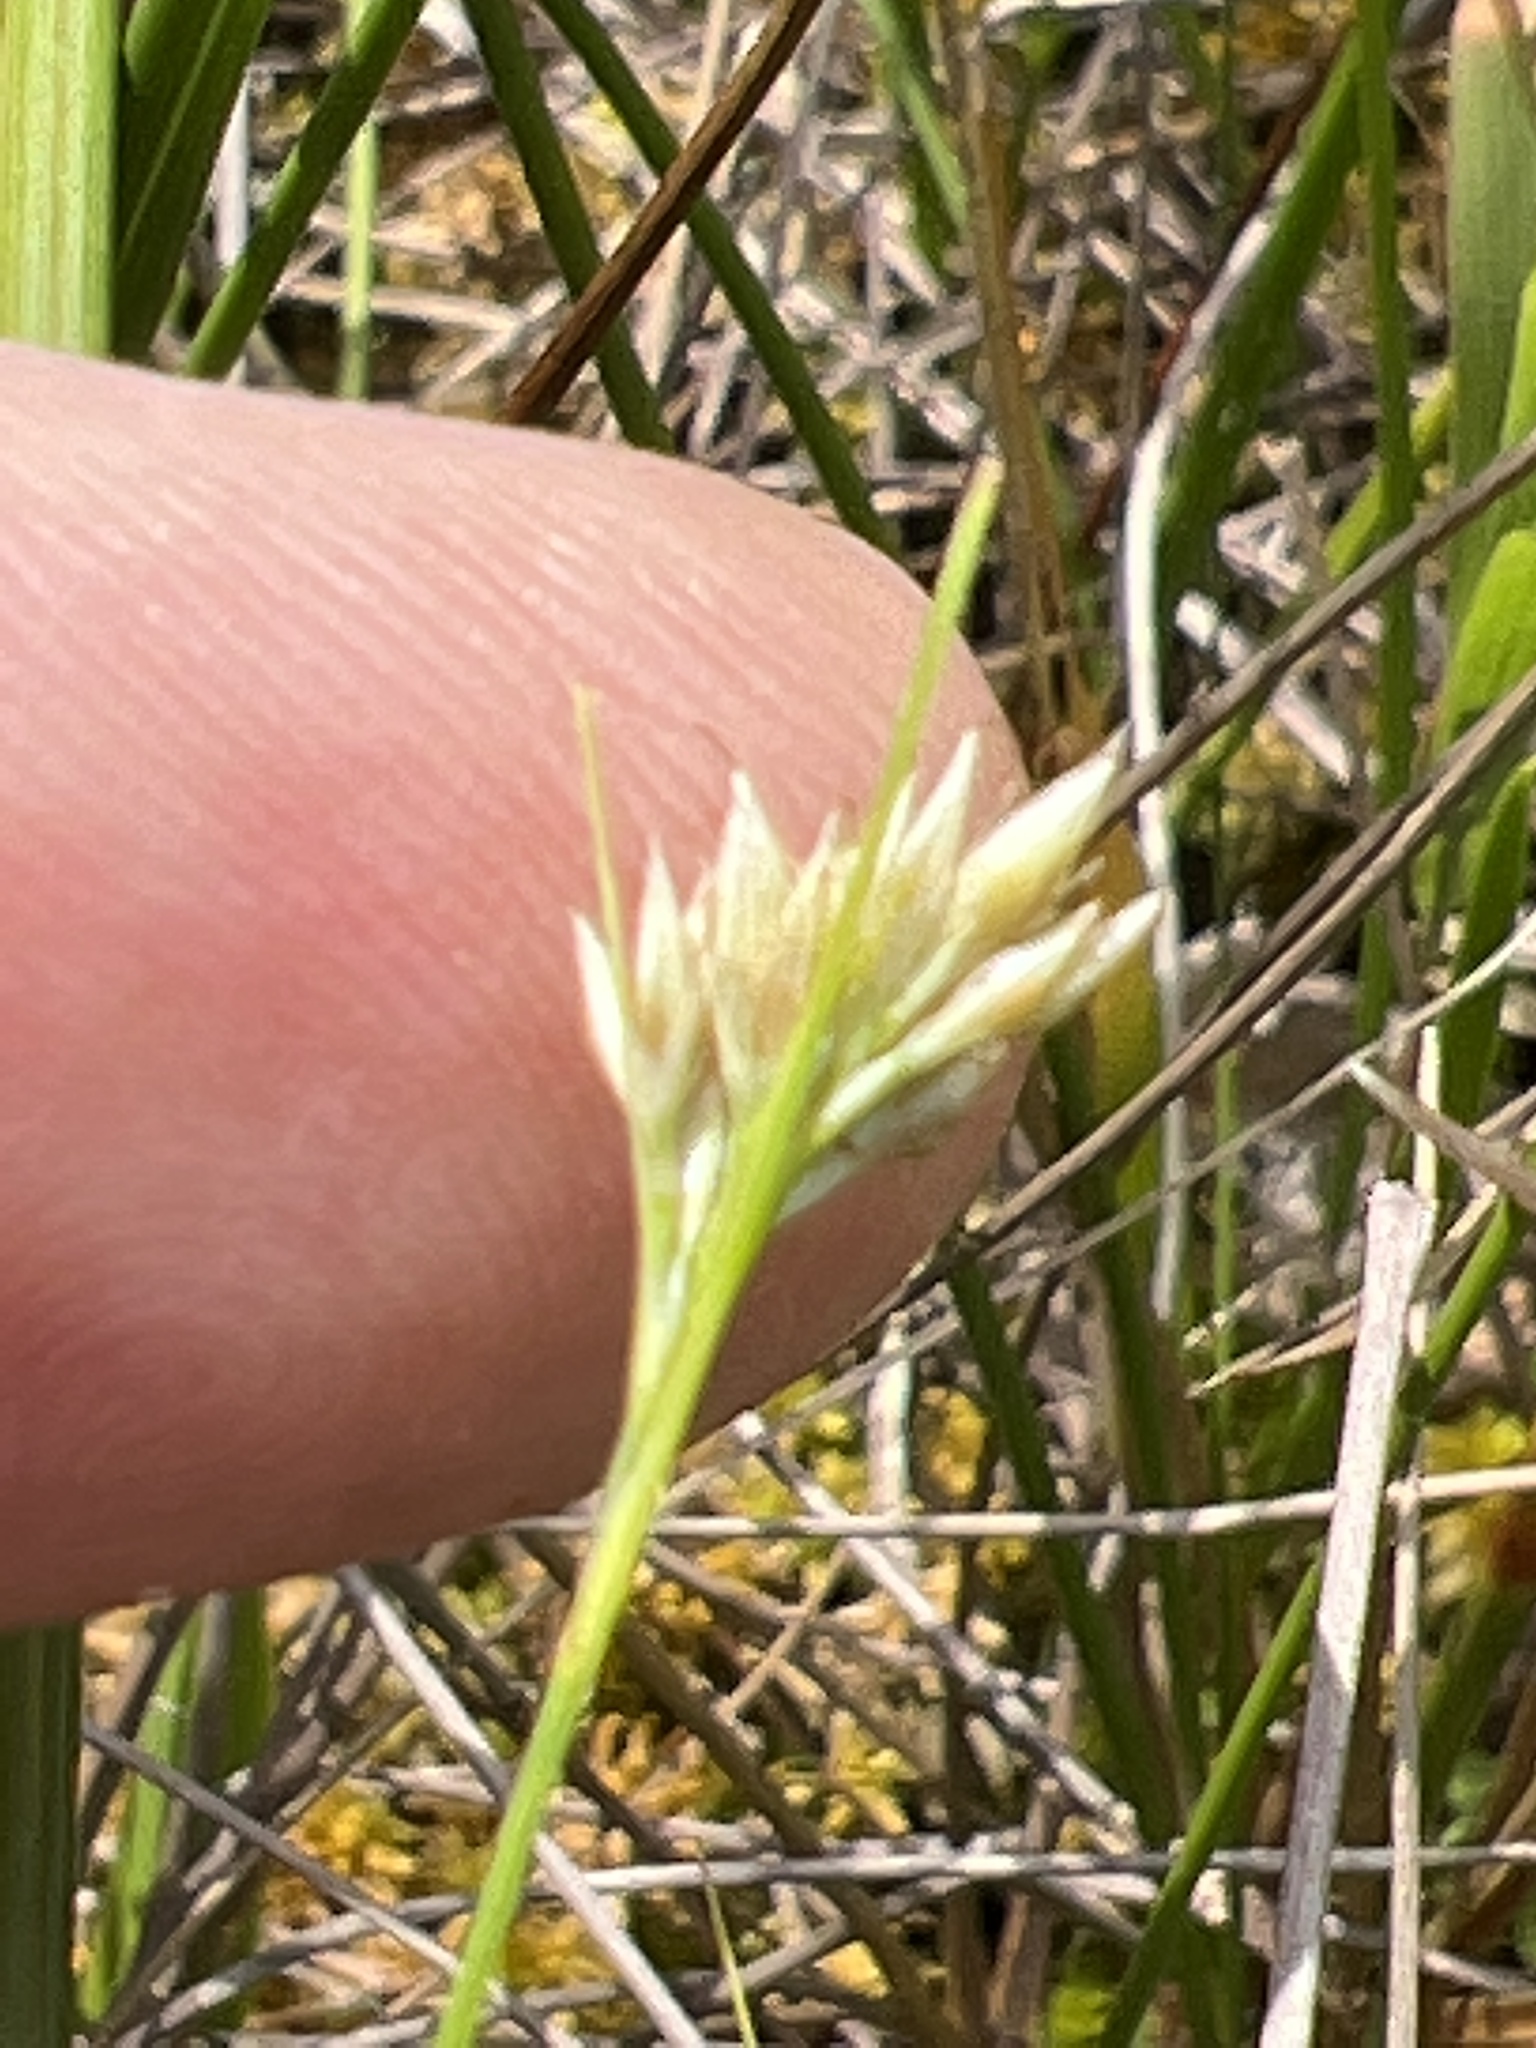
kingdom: Plantae
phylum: Tracheophyta
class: Liliopsida
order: Poales
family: Cyperaceae
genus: Rhynchospora
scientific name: Rhynchospora alba
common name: White beak-sedge
